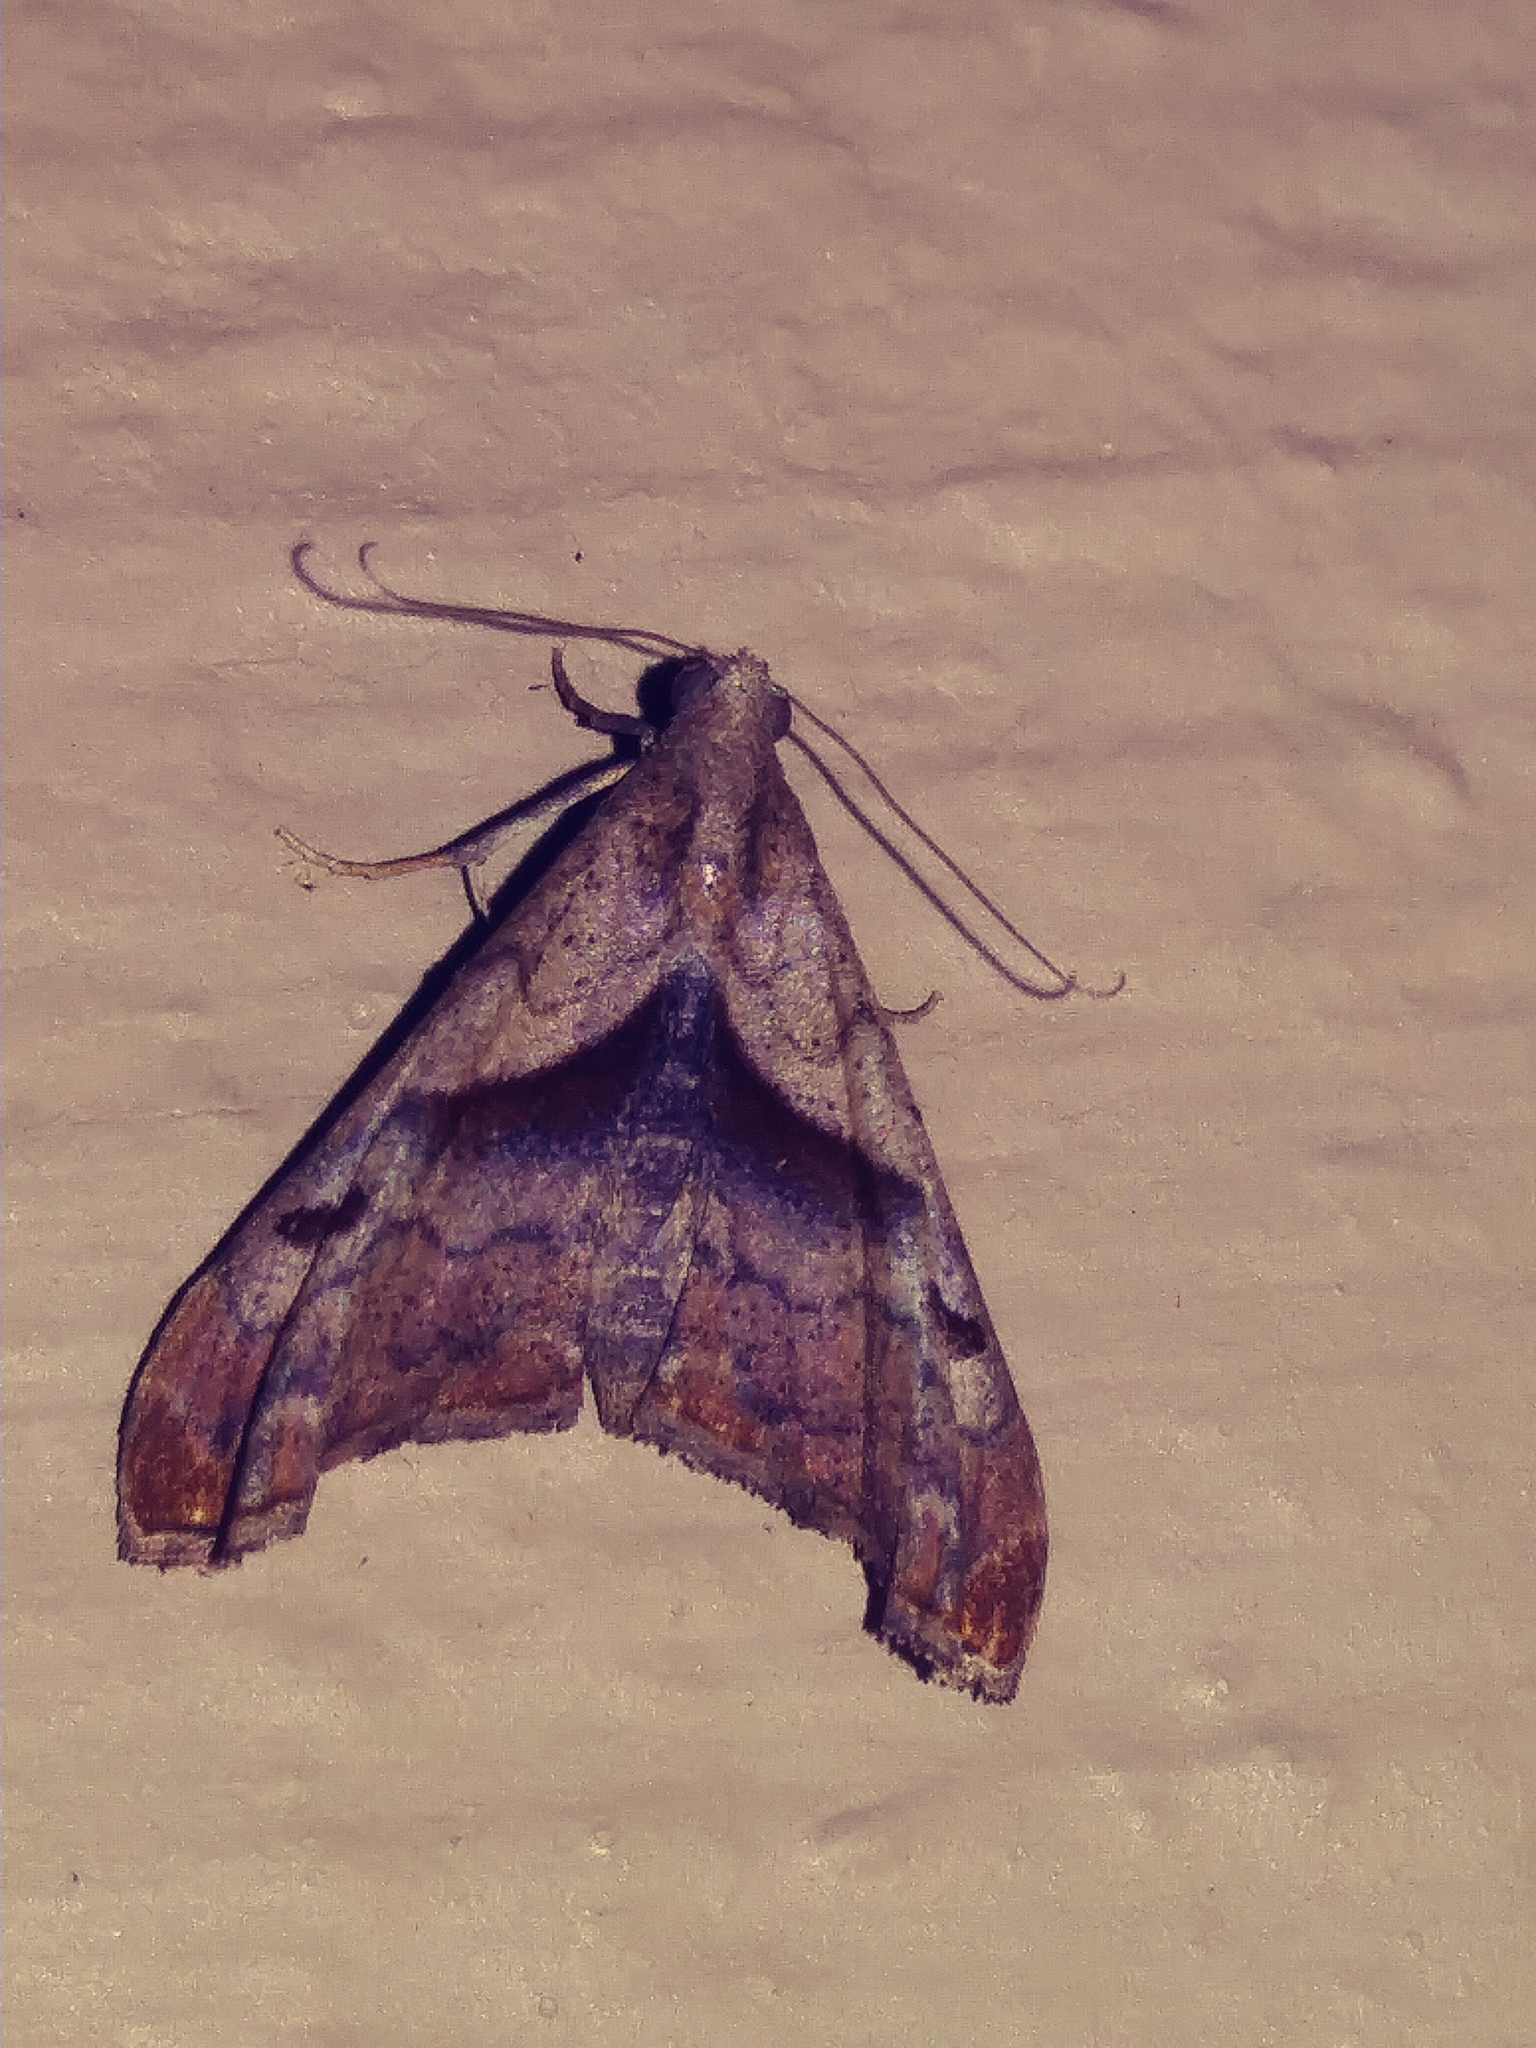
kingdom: Animalia
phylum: Arthropoda
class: Insecta
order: Lepidoptera
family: Erebidae
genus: Palthis
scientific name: Palthis angulalis
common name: Dark-spotted palthis moth
